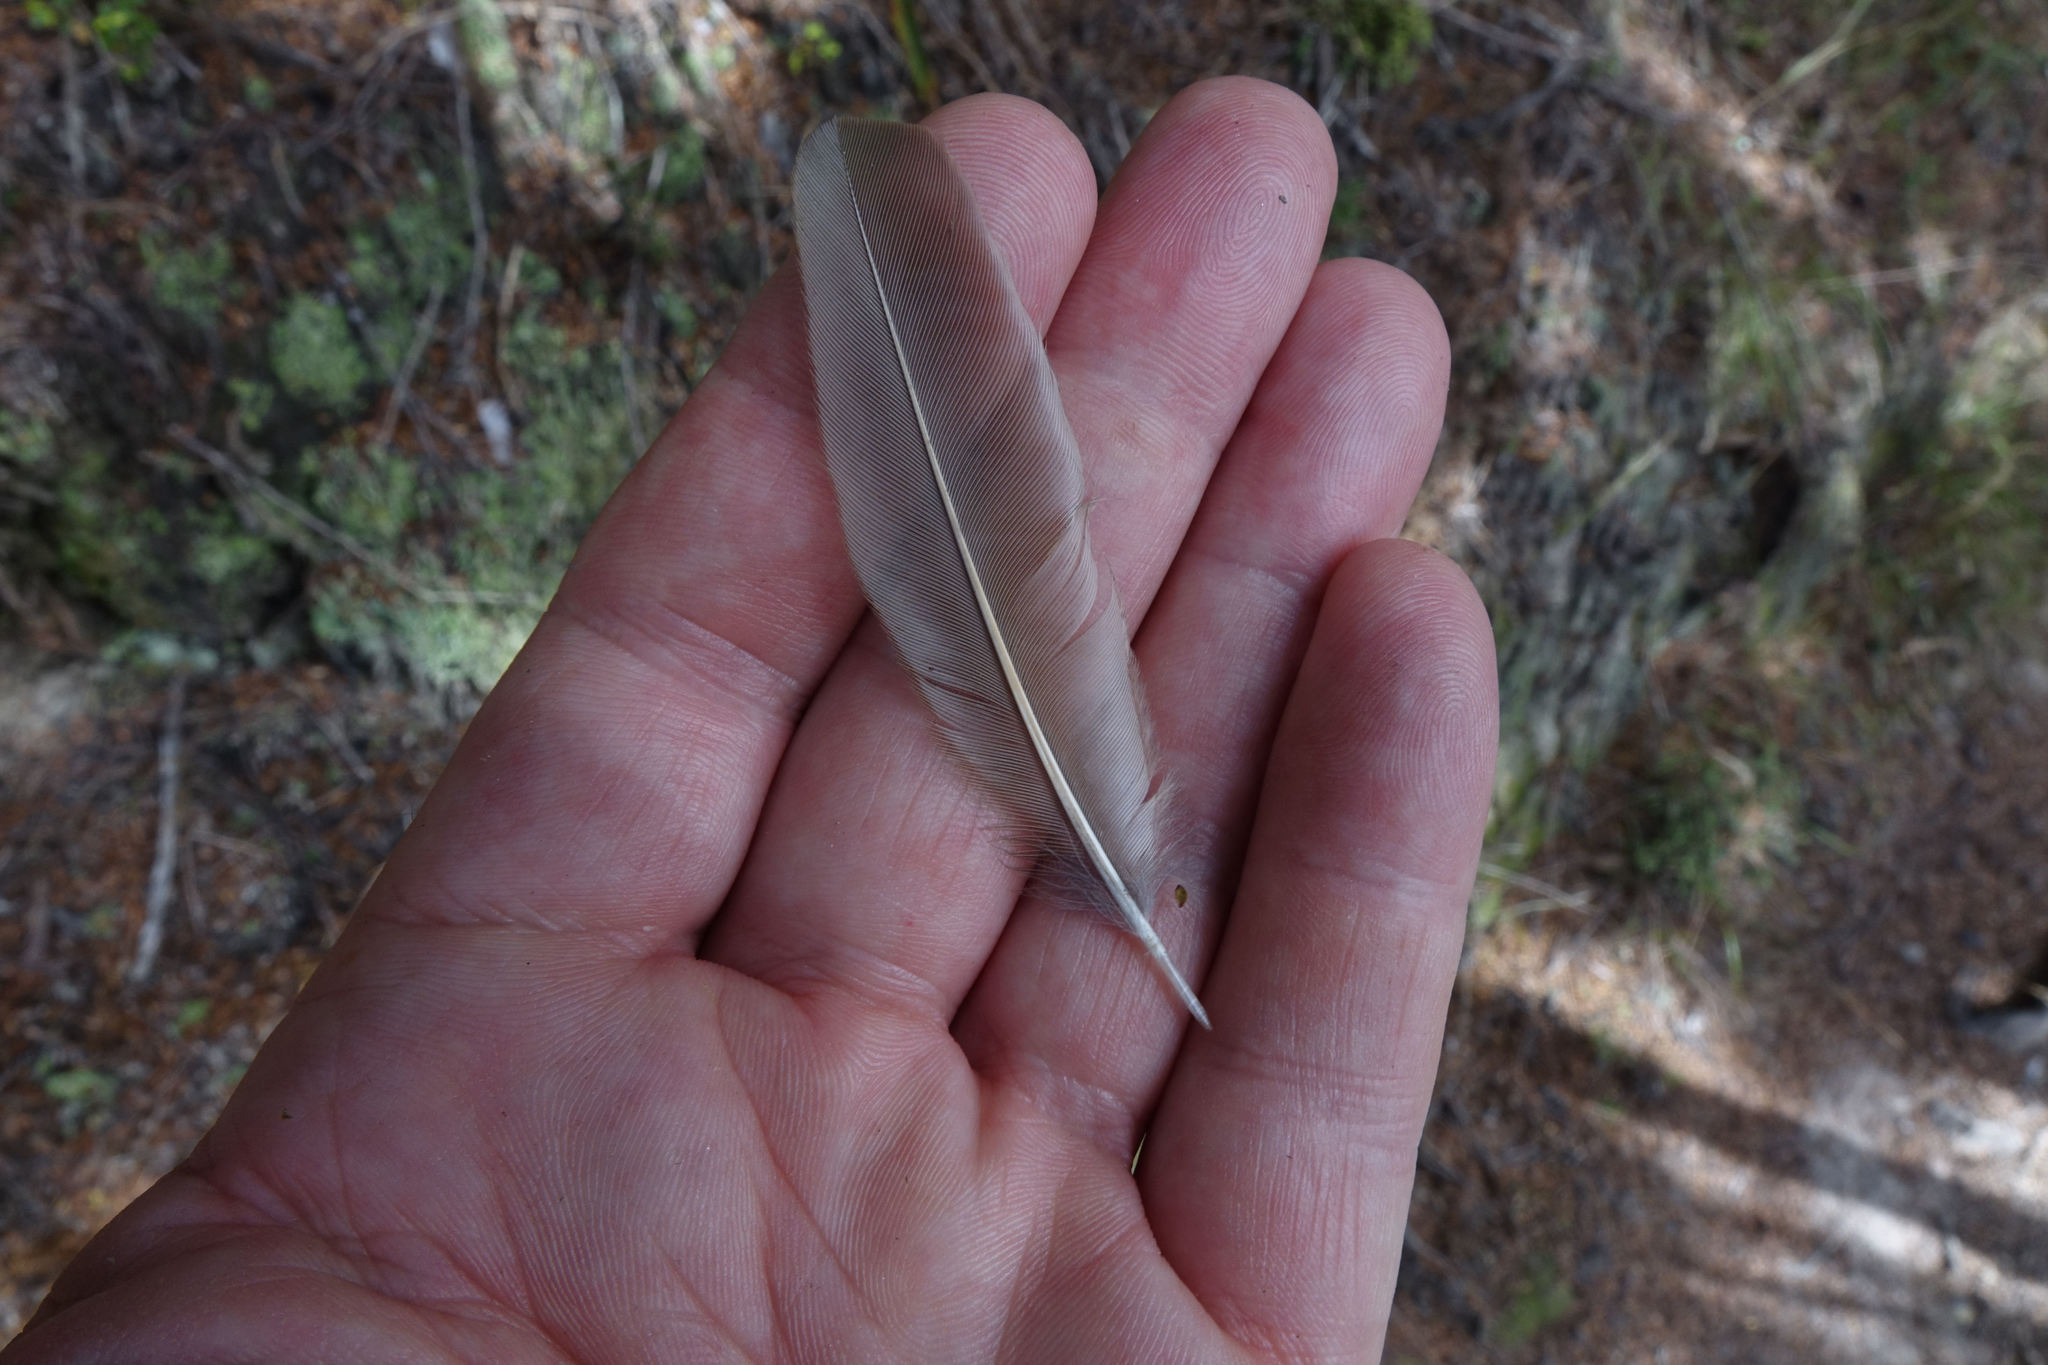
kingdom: Animalia
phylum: Chordata
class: Aves
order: Passeriformes
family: Turdidae
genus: Turdus
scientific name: Turdus philomelos
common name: Song thrush
